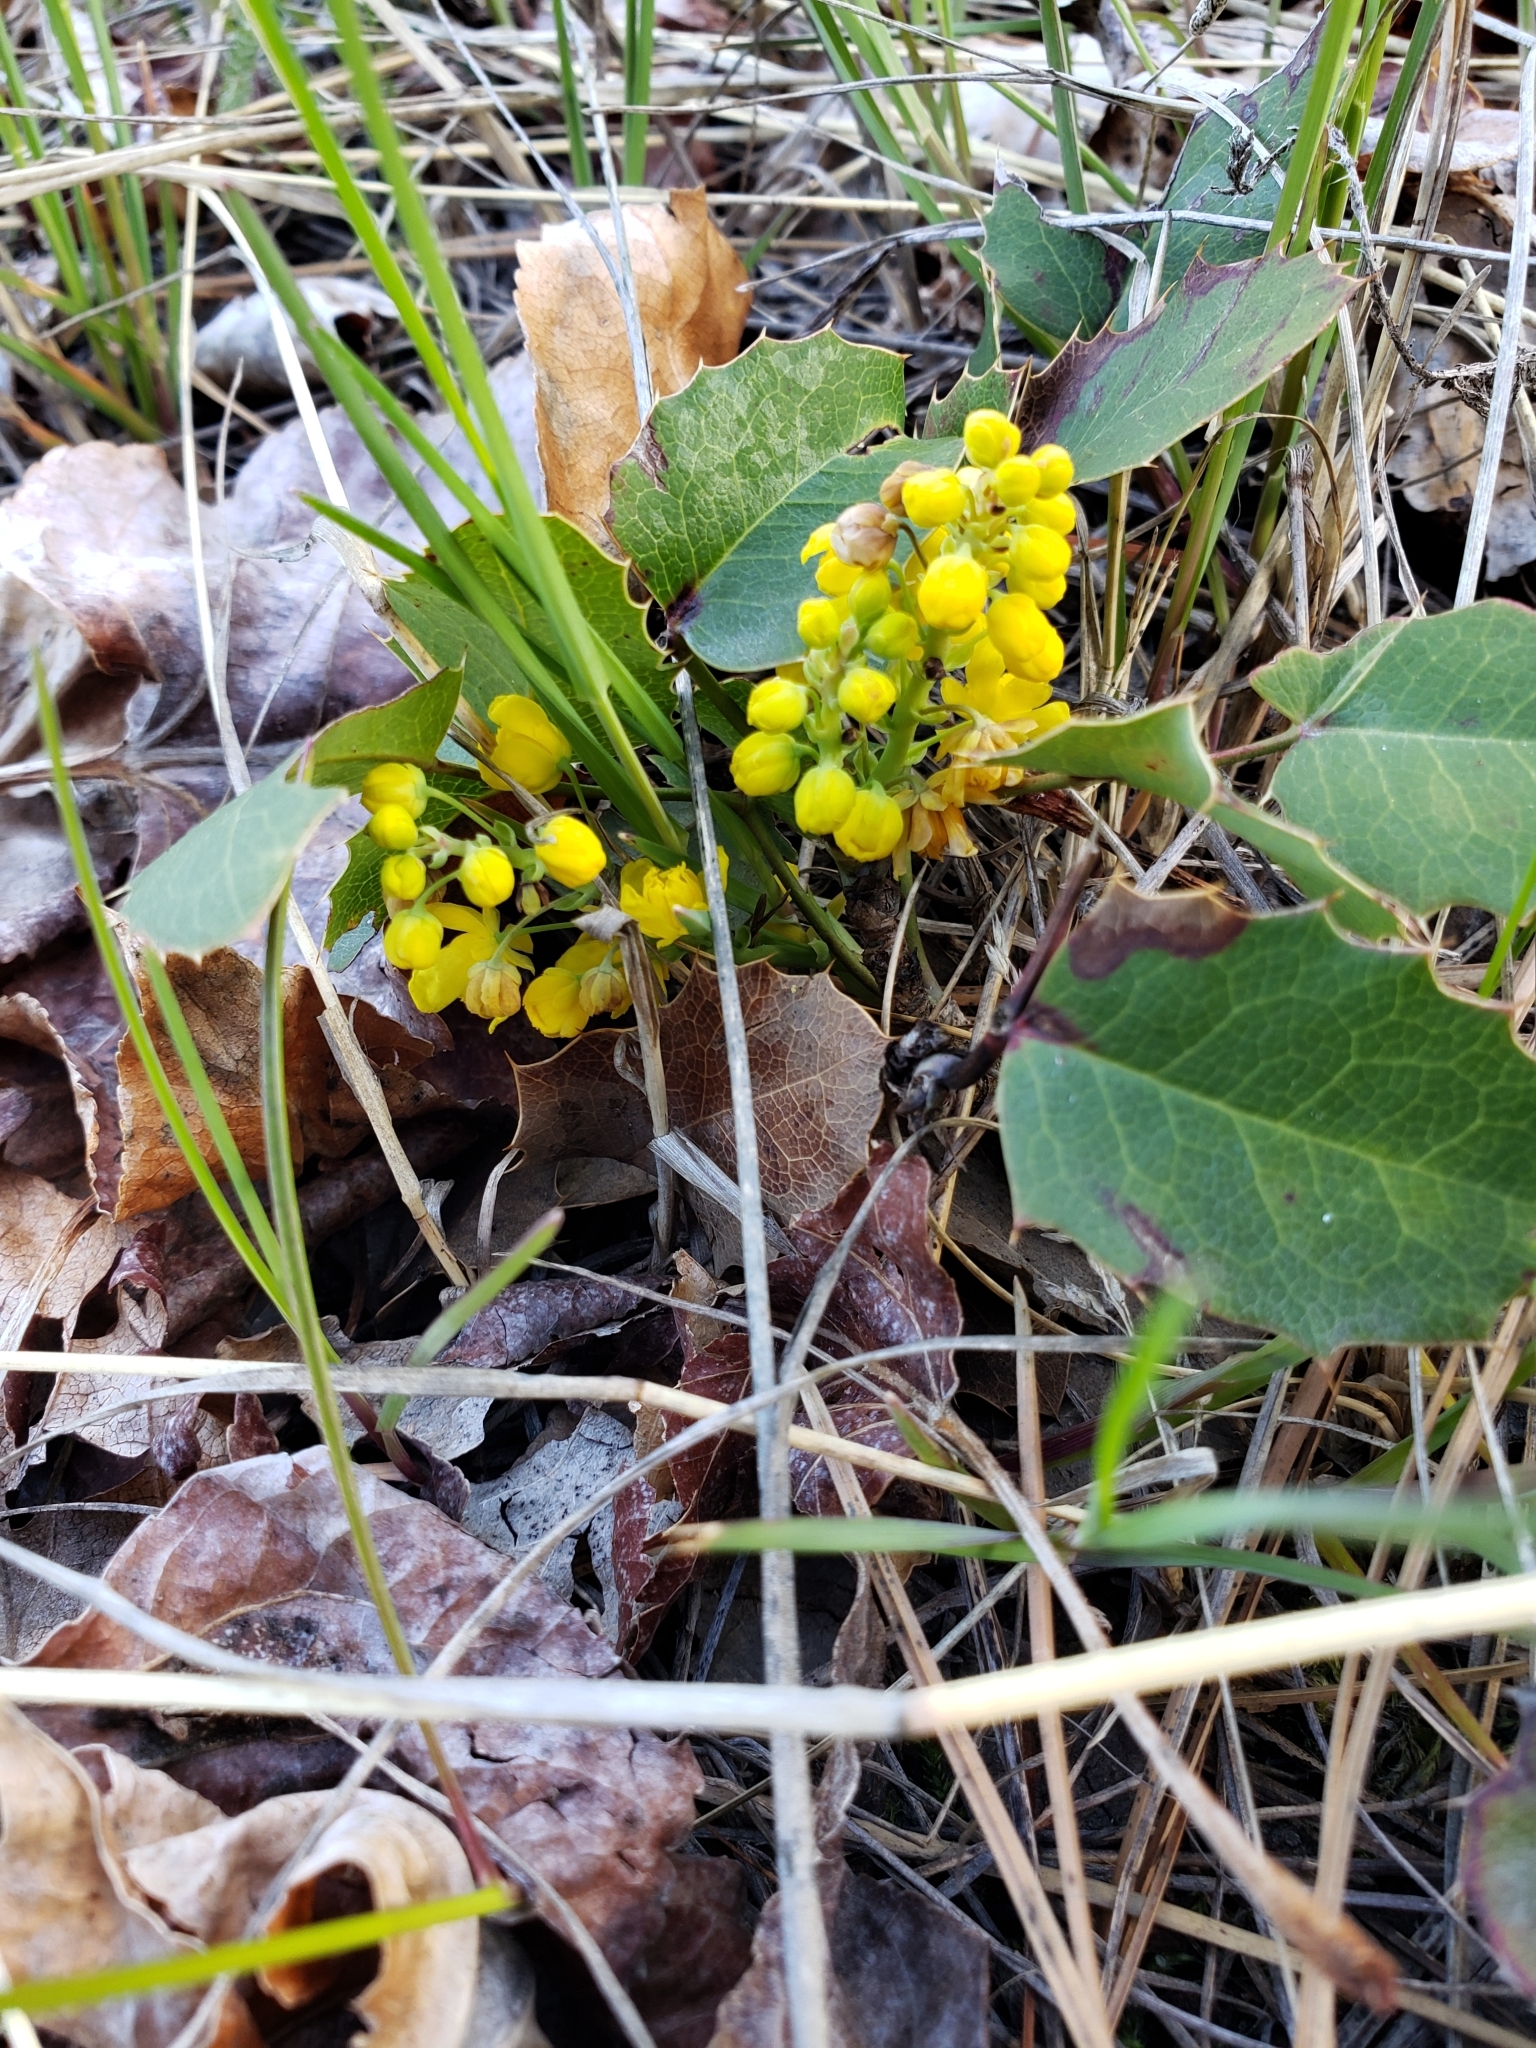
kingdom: Plantae
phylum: Tracheophyta
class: Magnoliopsida
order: Ranunculales
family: Berberidaceae
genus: Mahonia
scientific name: Mahonia repens
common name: Creeping oregon-grape
